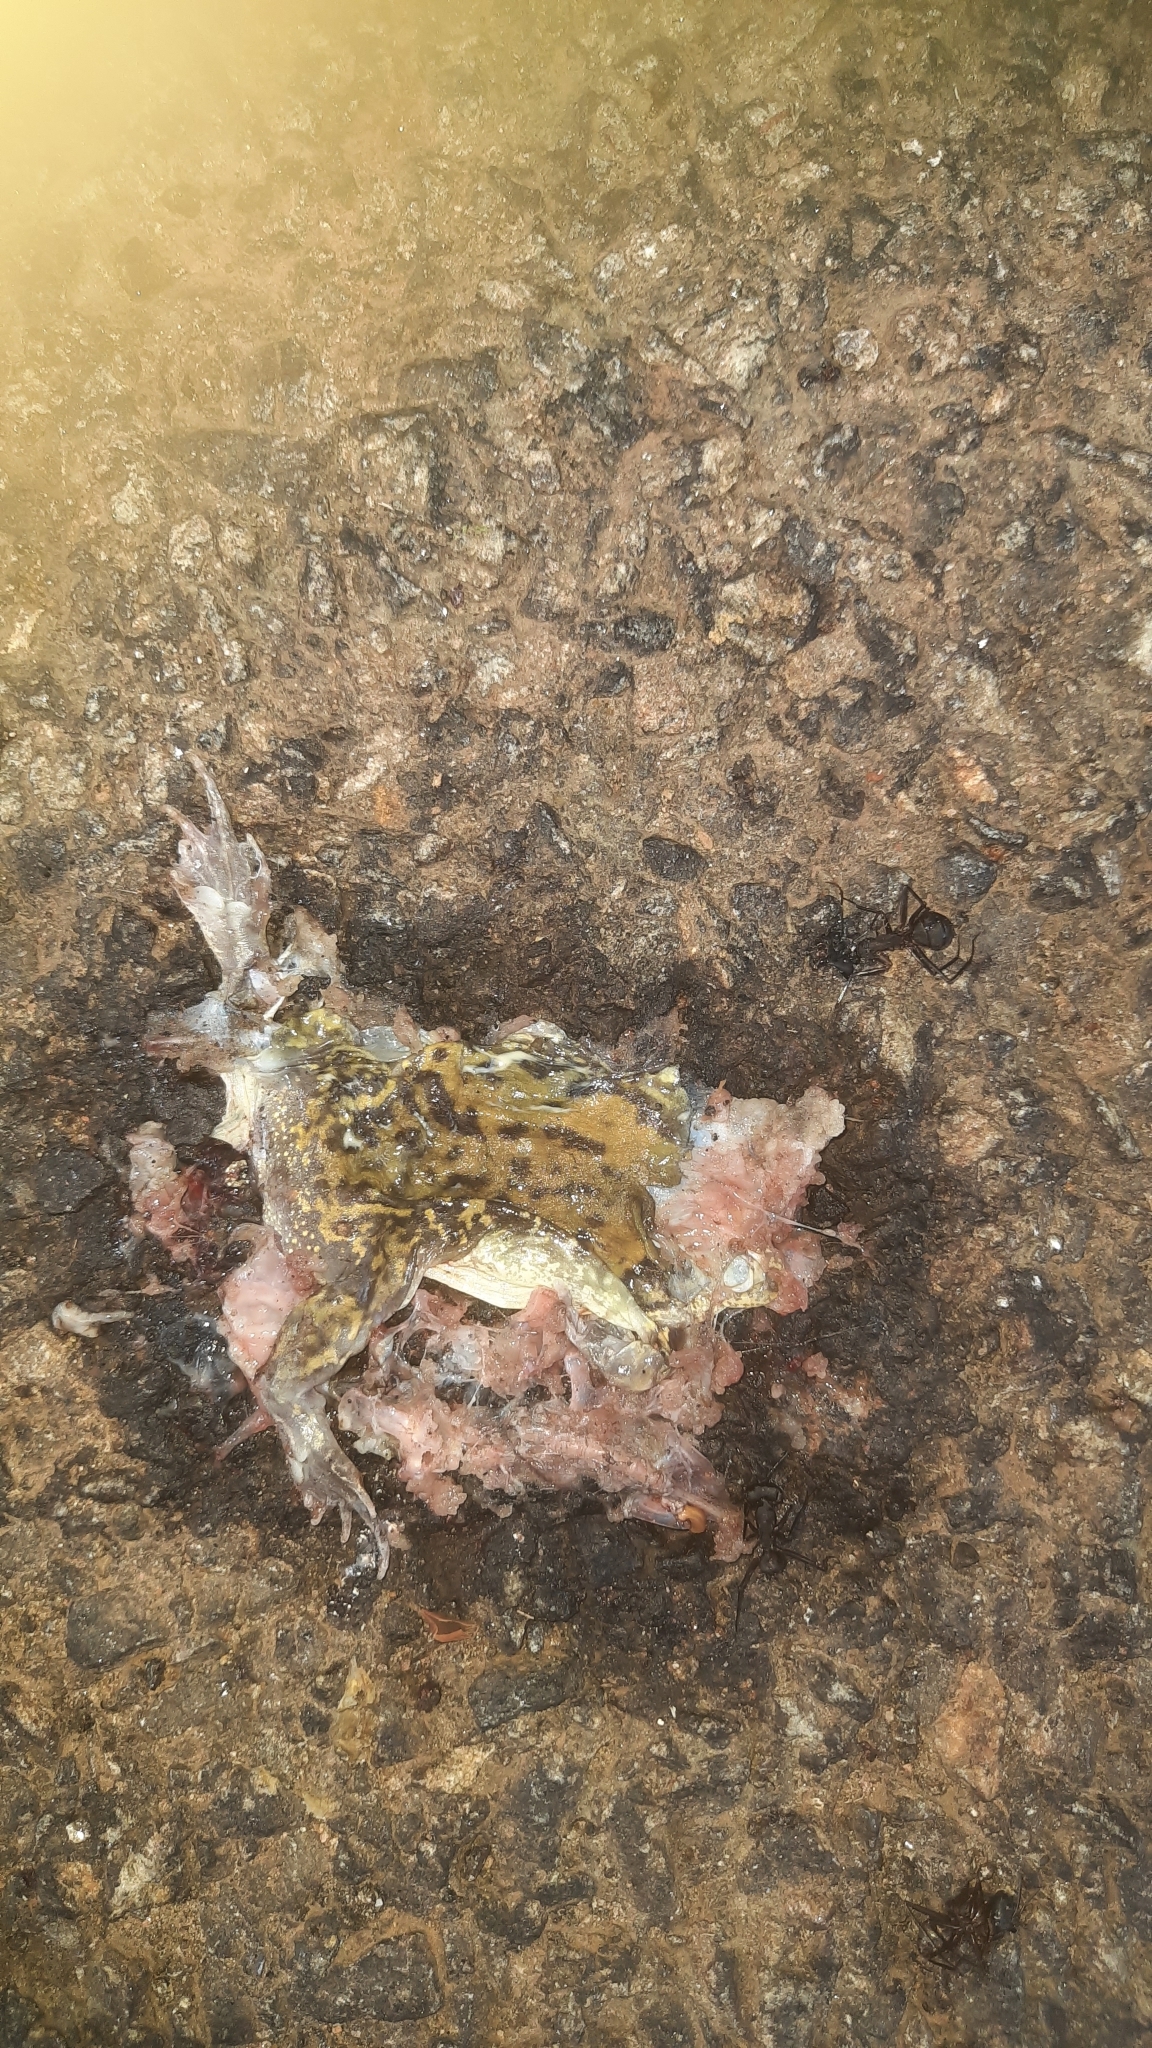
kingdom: Animalia
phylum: Chordata
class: Amphibia
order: Anura
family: Microhylidae
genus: Uperodon
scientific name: Uperodon systoma
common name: Balloon frog
